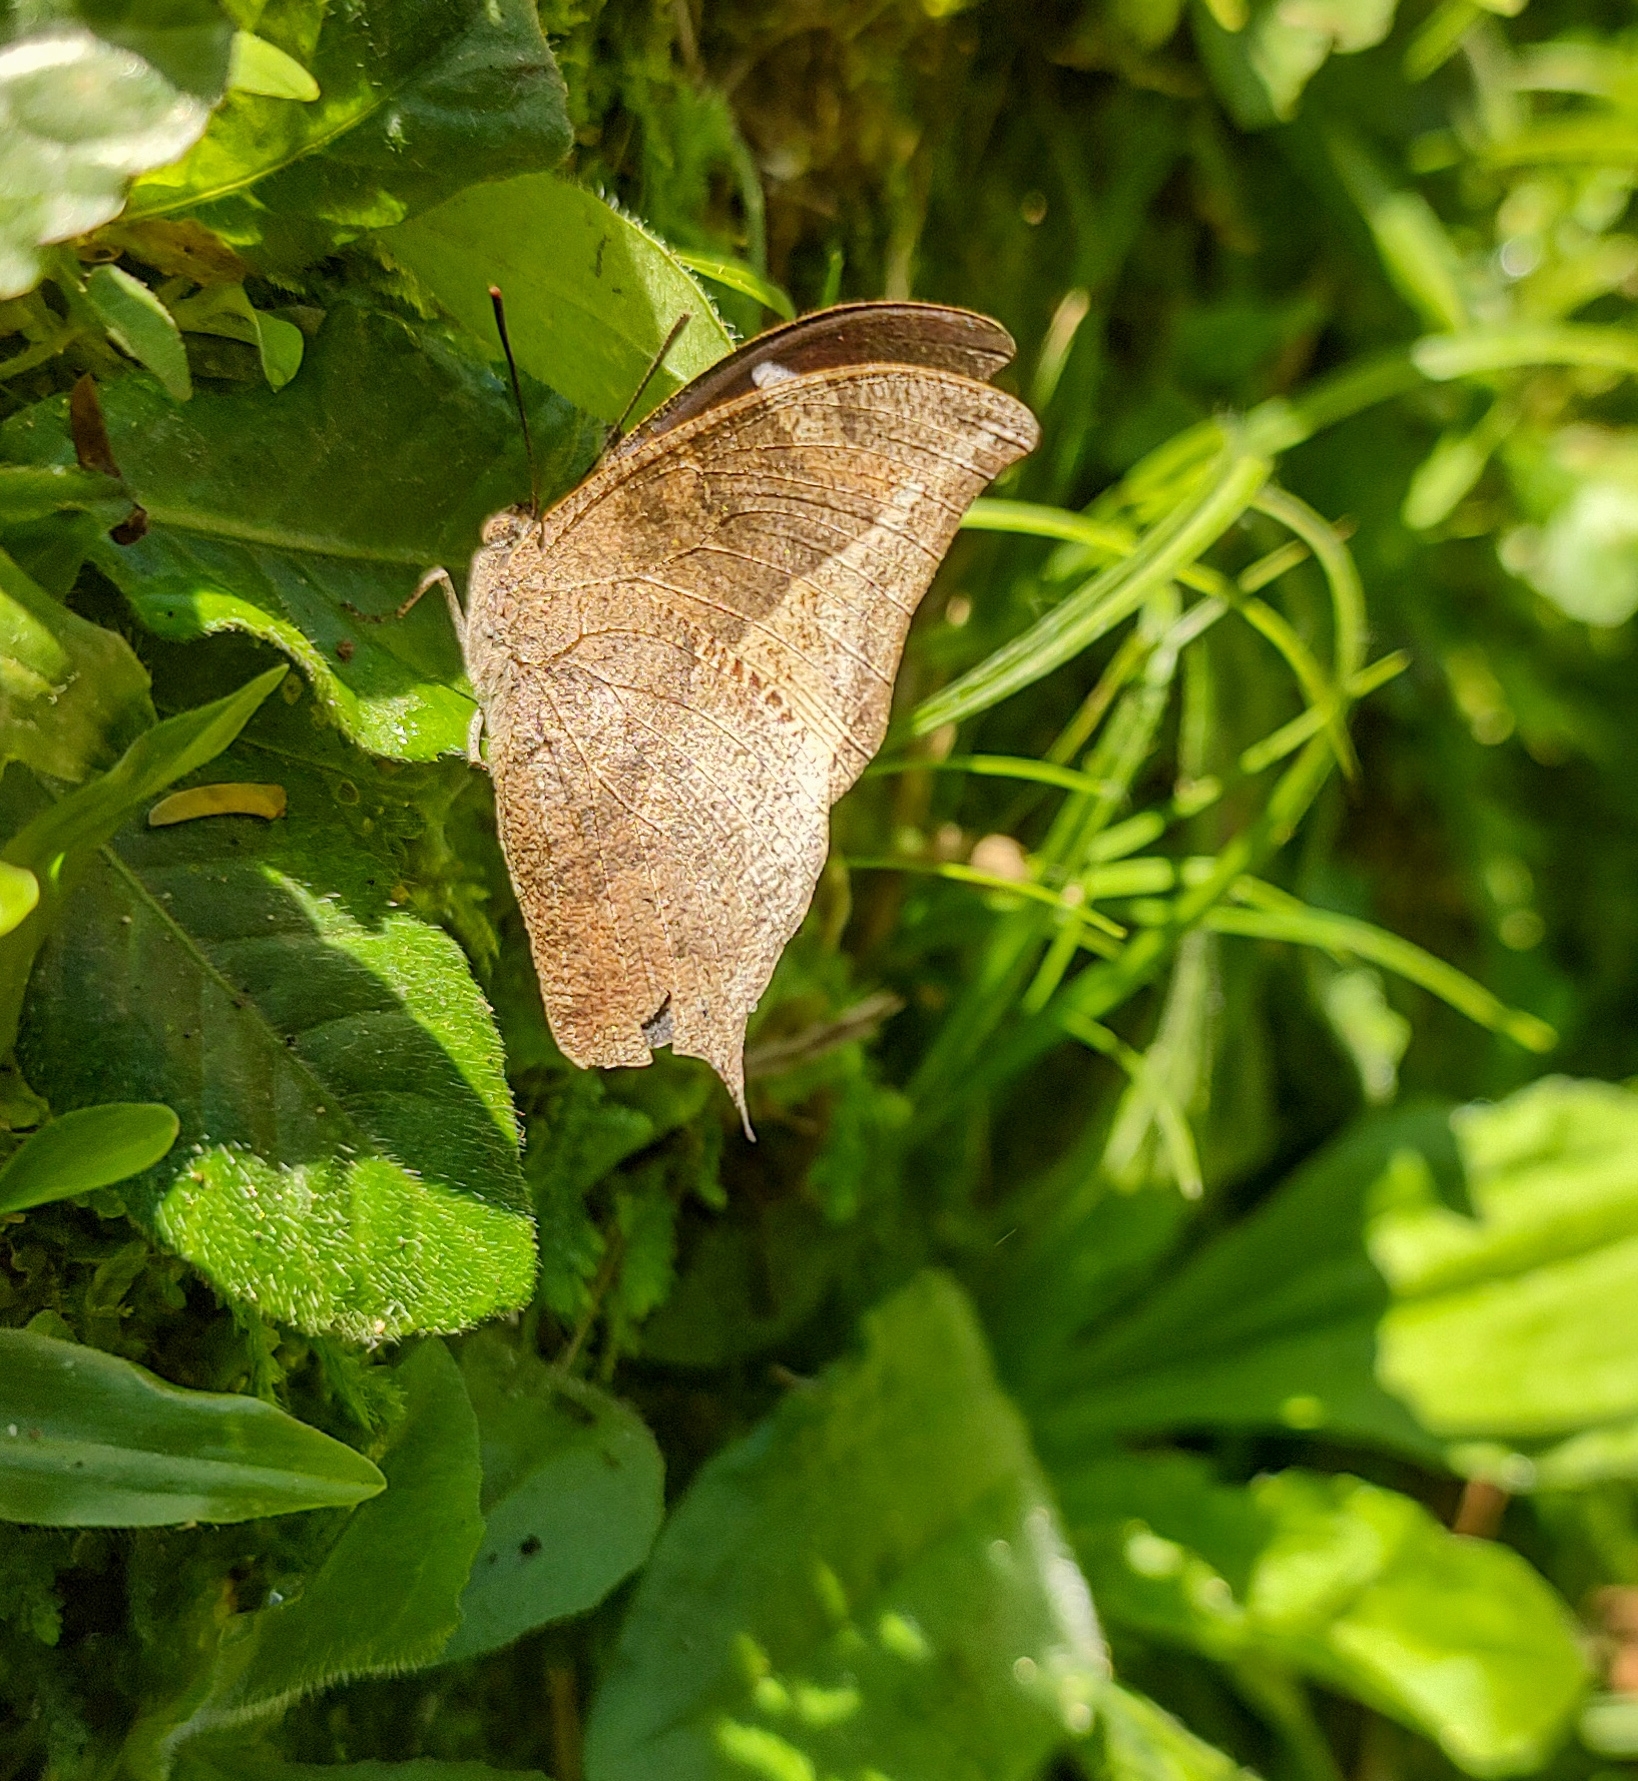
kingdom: Animalia
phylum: Arthropoda
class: Insecta
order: Lepidoptera
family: Nymphalidae
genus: Memphis
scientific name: Memphis
